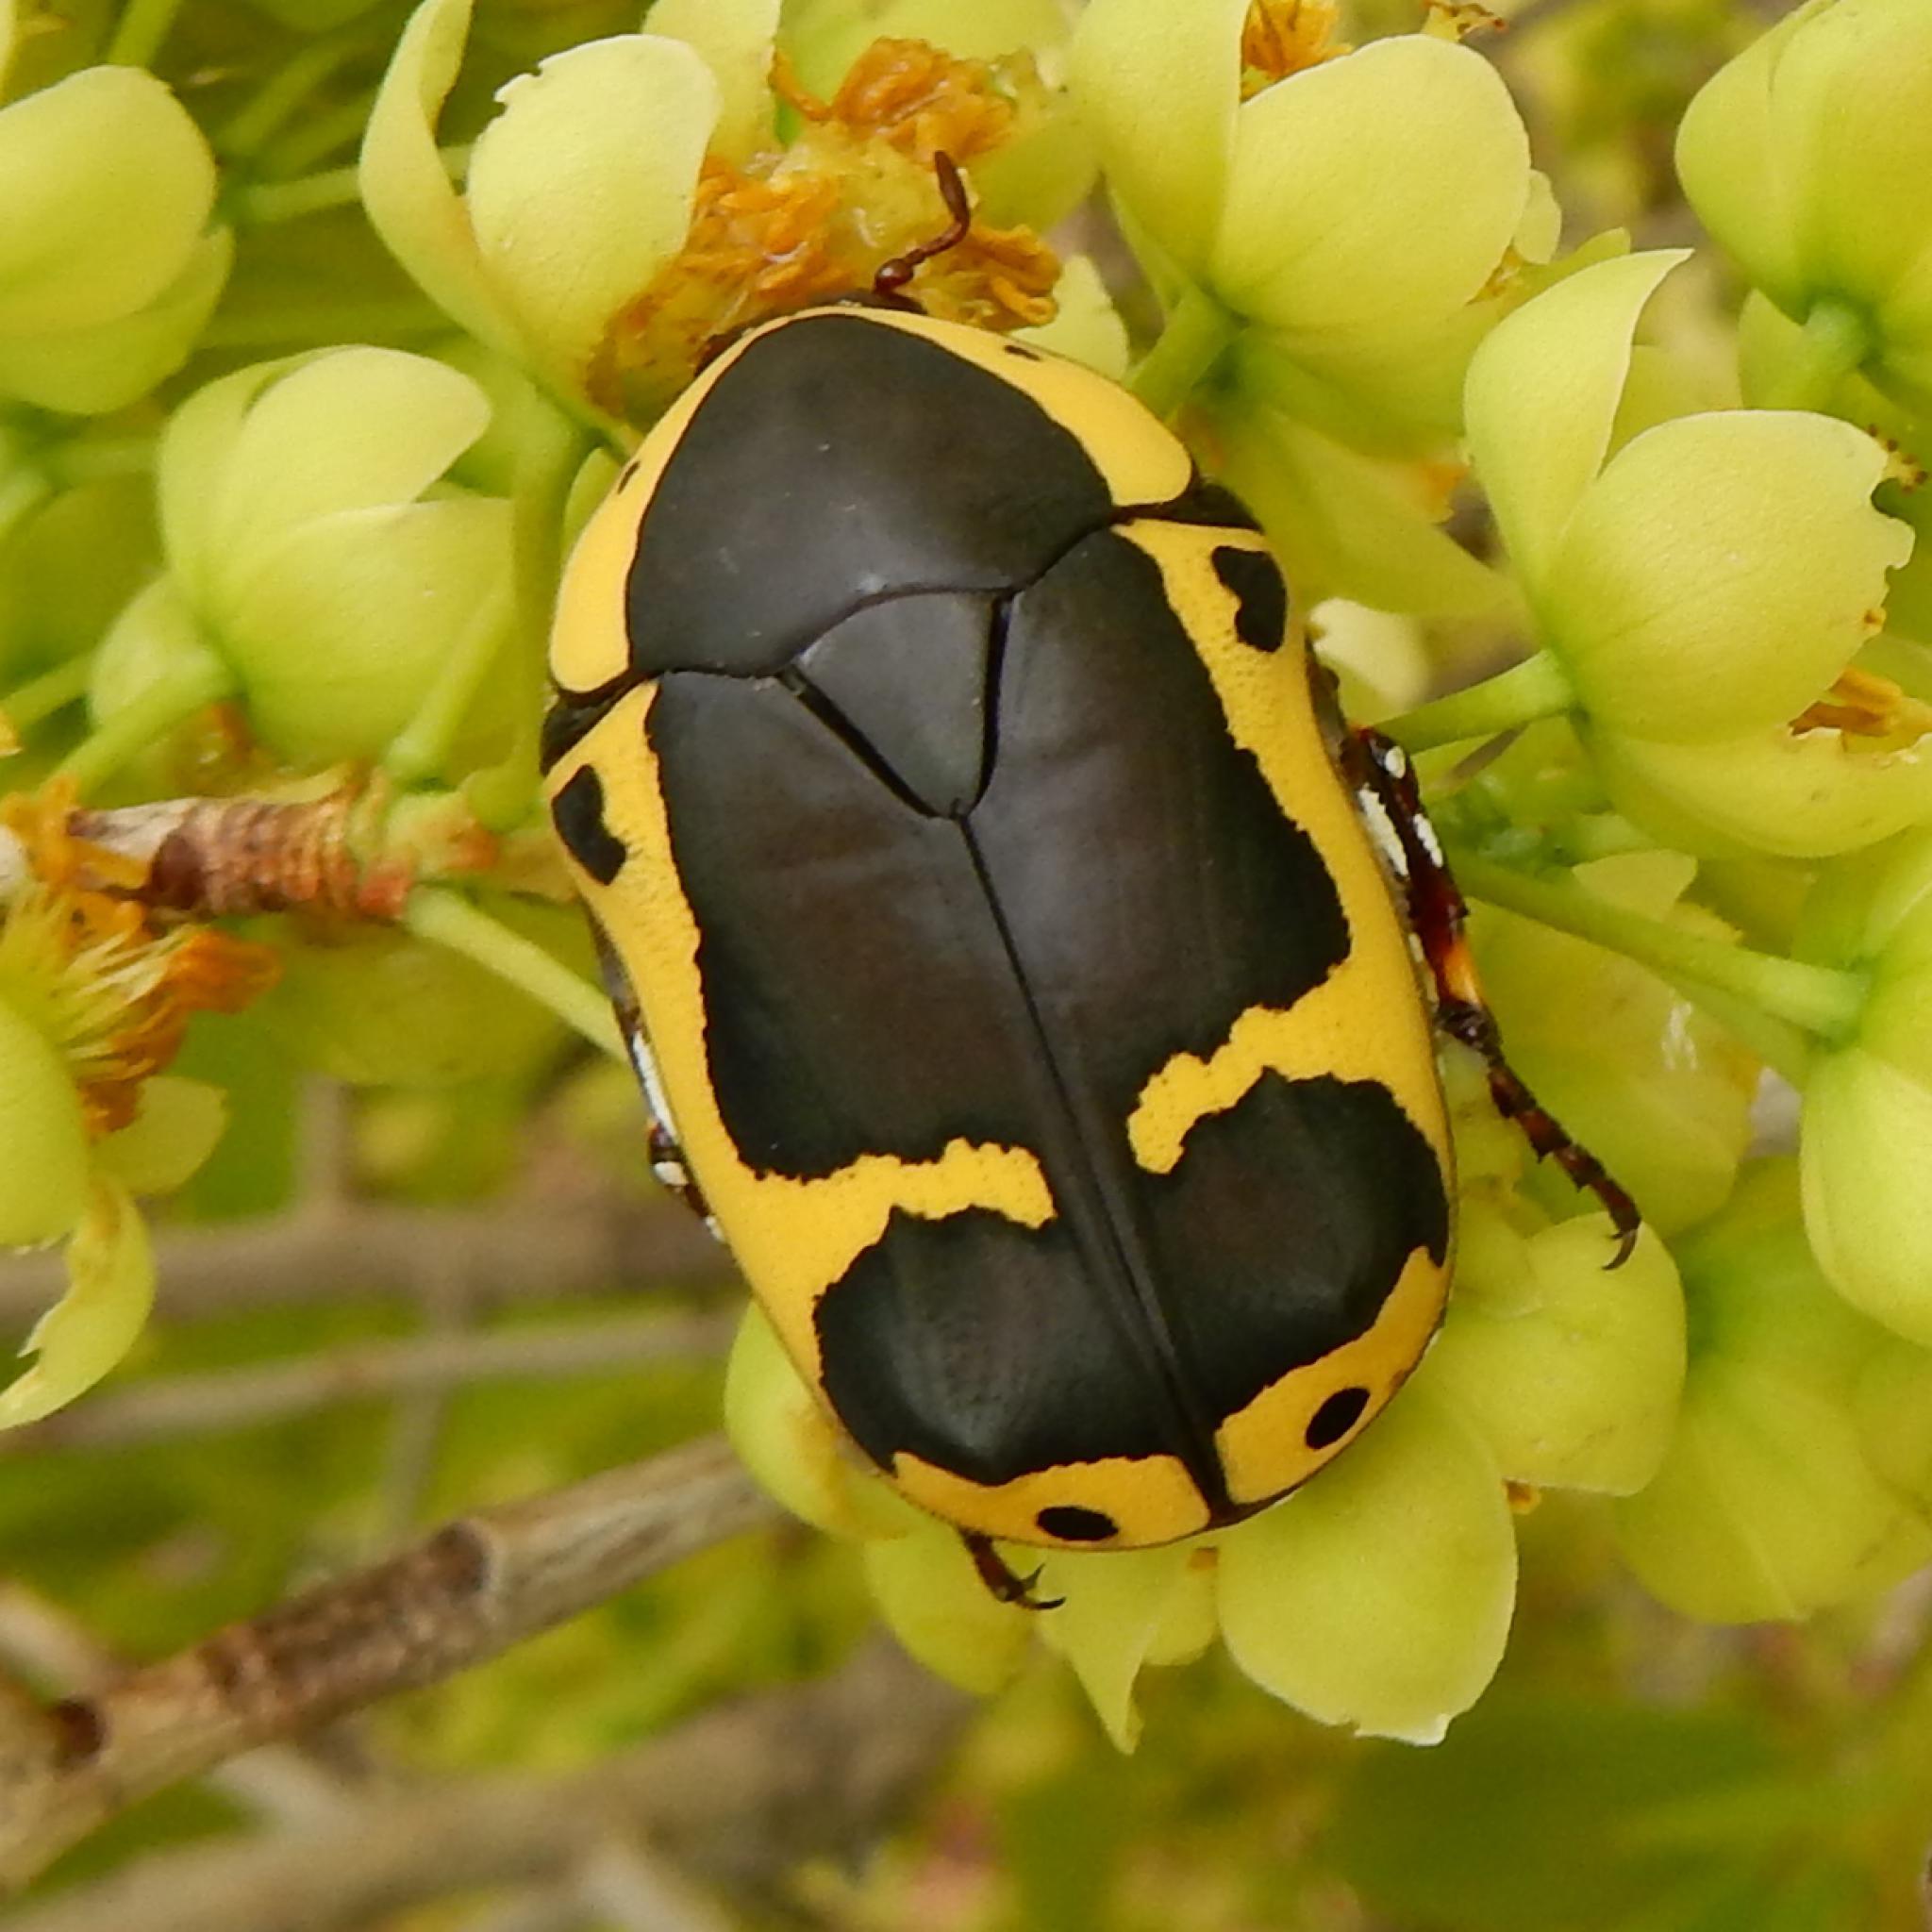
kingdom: Animalia
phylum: Arthropoda
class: Insecta
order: Coleoptera
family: Scarabaeidae
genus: Pachnoda
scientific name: Pachnoda sinuata
